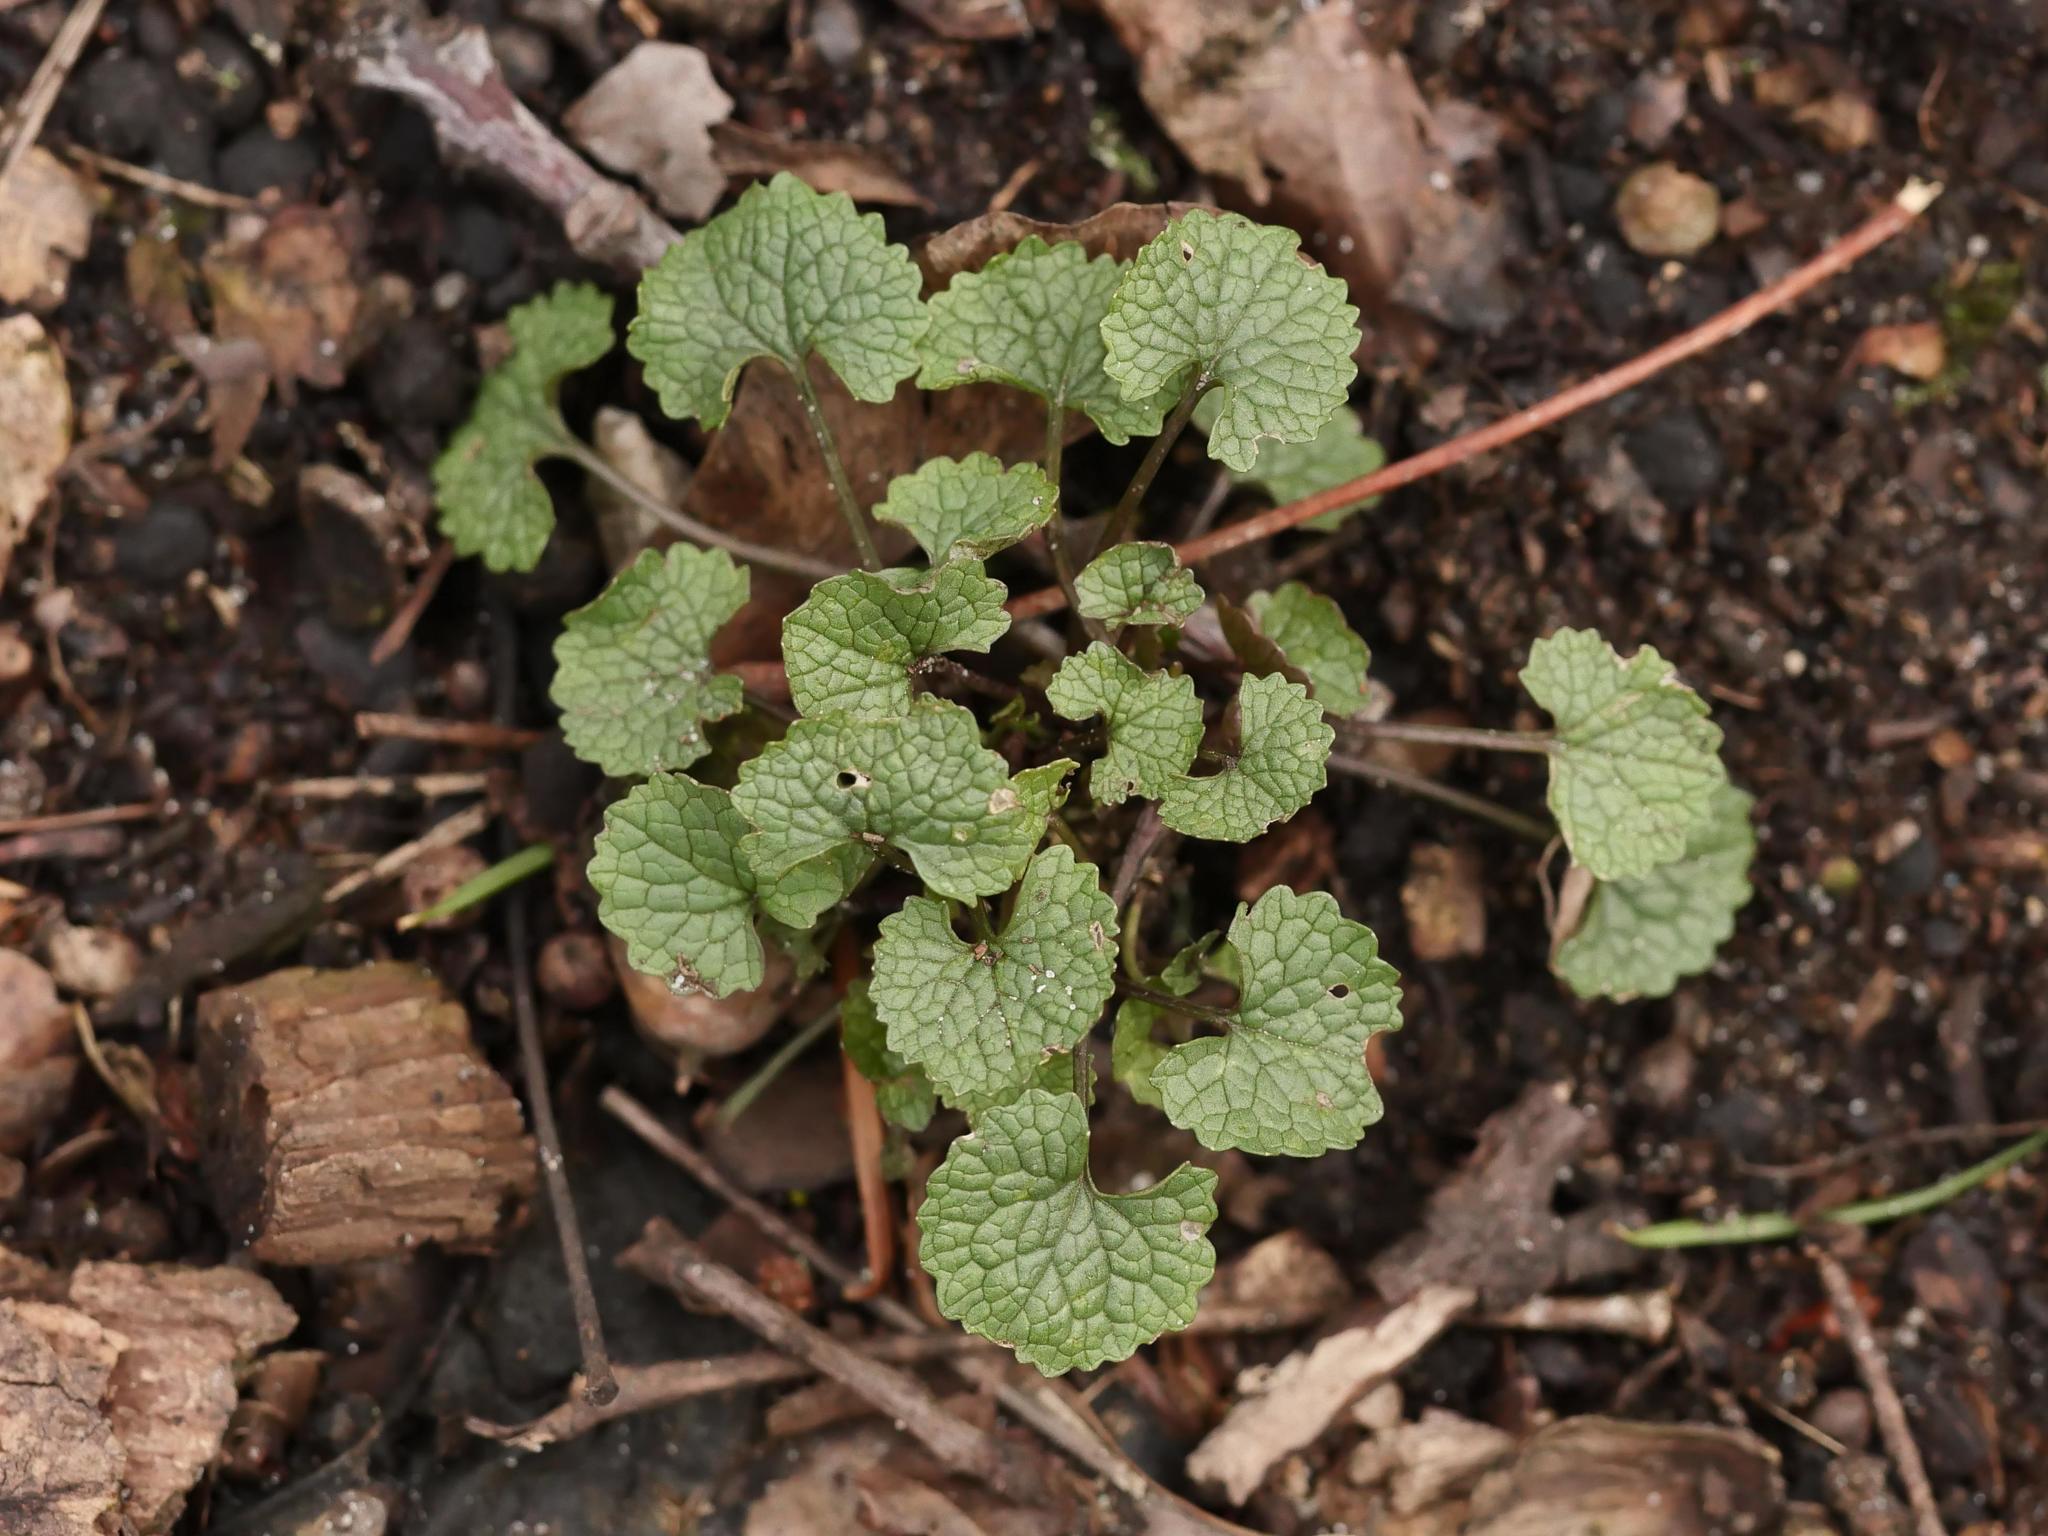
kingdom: Plantae
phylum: Tracheophyta
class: Magnoliopsida
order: Brassicales
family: Brassicaceae
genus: Alliaria
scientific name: Alliaria petiolata
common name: Garlic mustard
